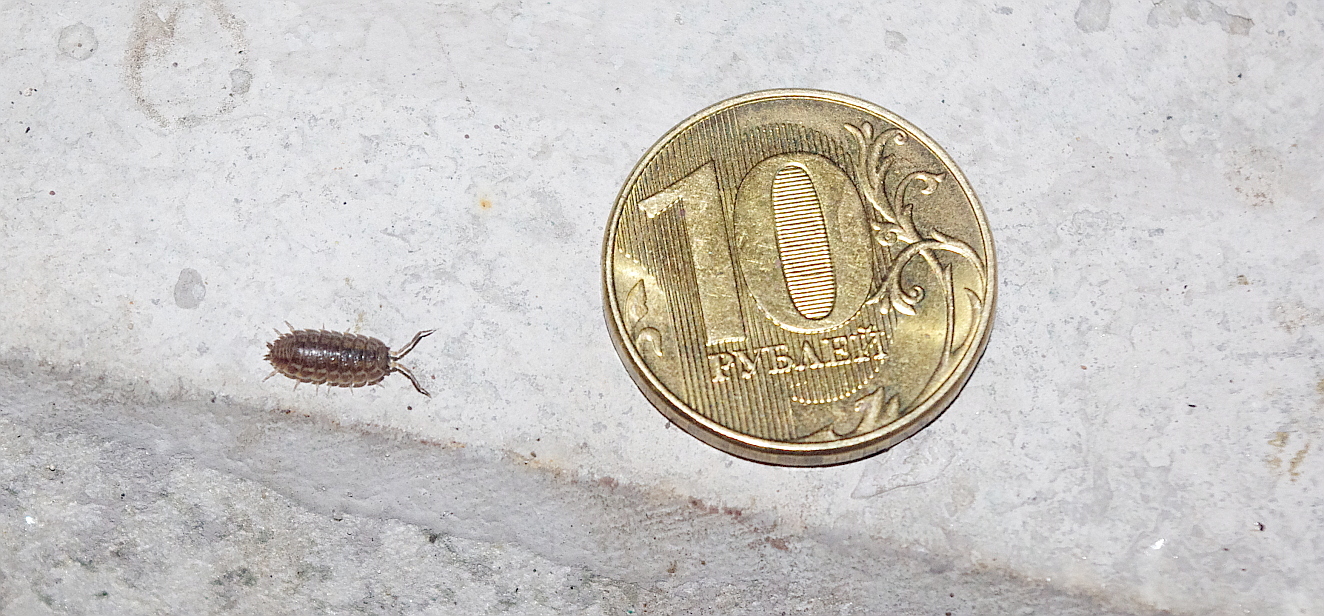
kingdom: Animalia
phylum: Arthropoda
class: Malacostraca
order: Isopoda
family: Trachelipodidae
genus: Trachelipus
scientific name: Trachelipus rathkii
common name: Isopod
